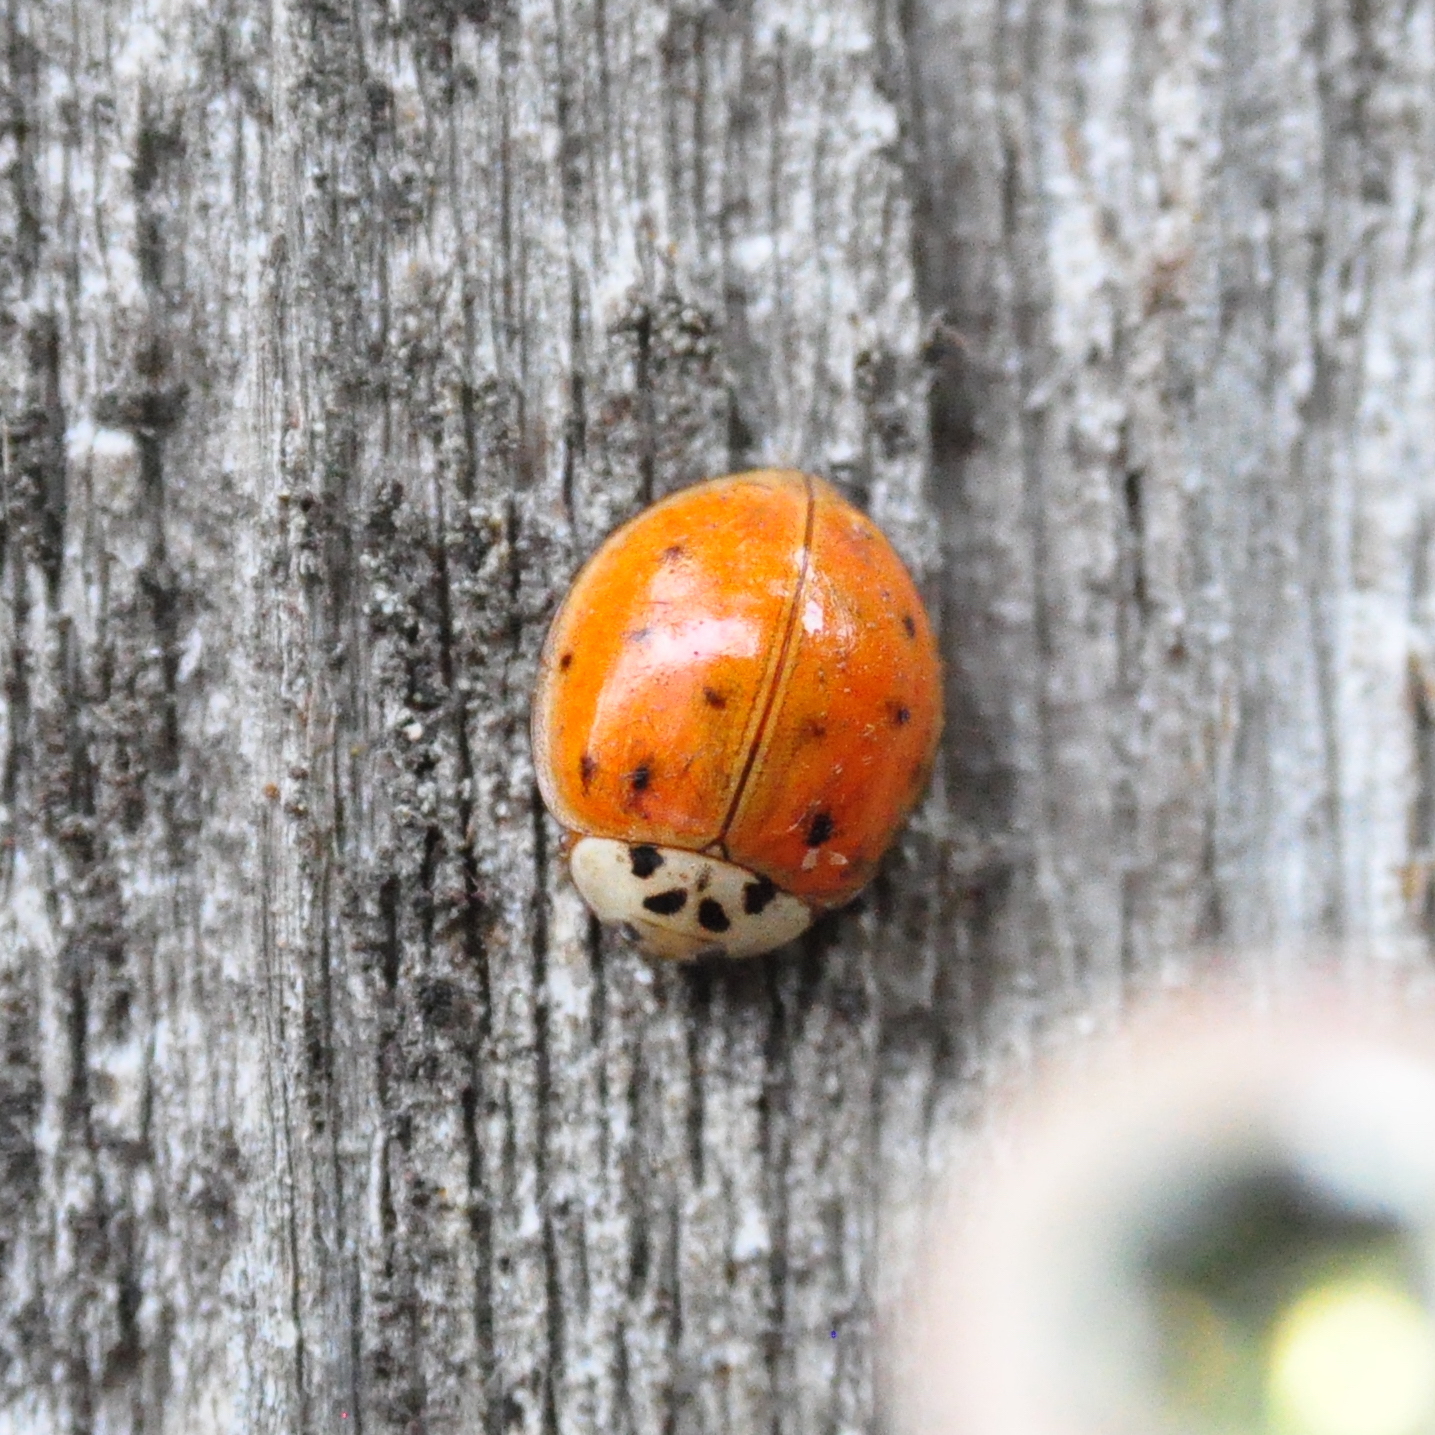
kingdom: Animalia
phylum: Arthropoda
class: Insecta
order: Coleoptera
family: Coccinellidae
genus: Harmonia
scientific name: Harmonia axyridis
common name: Harlequin ladybird
